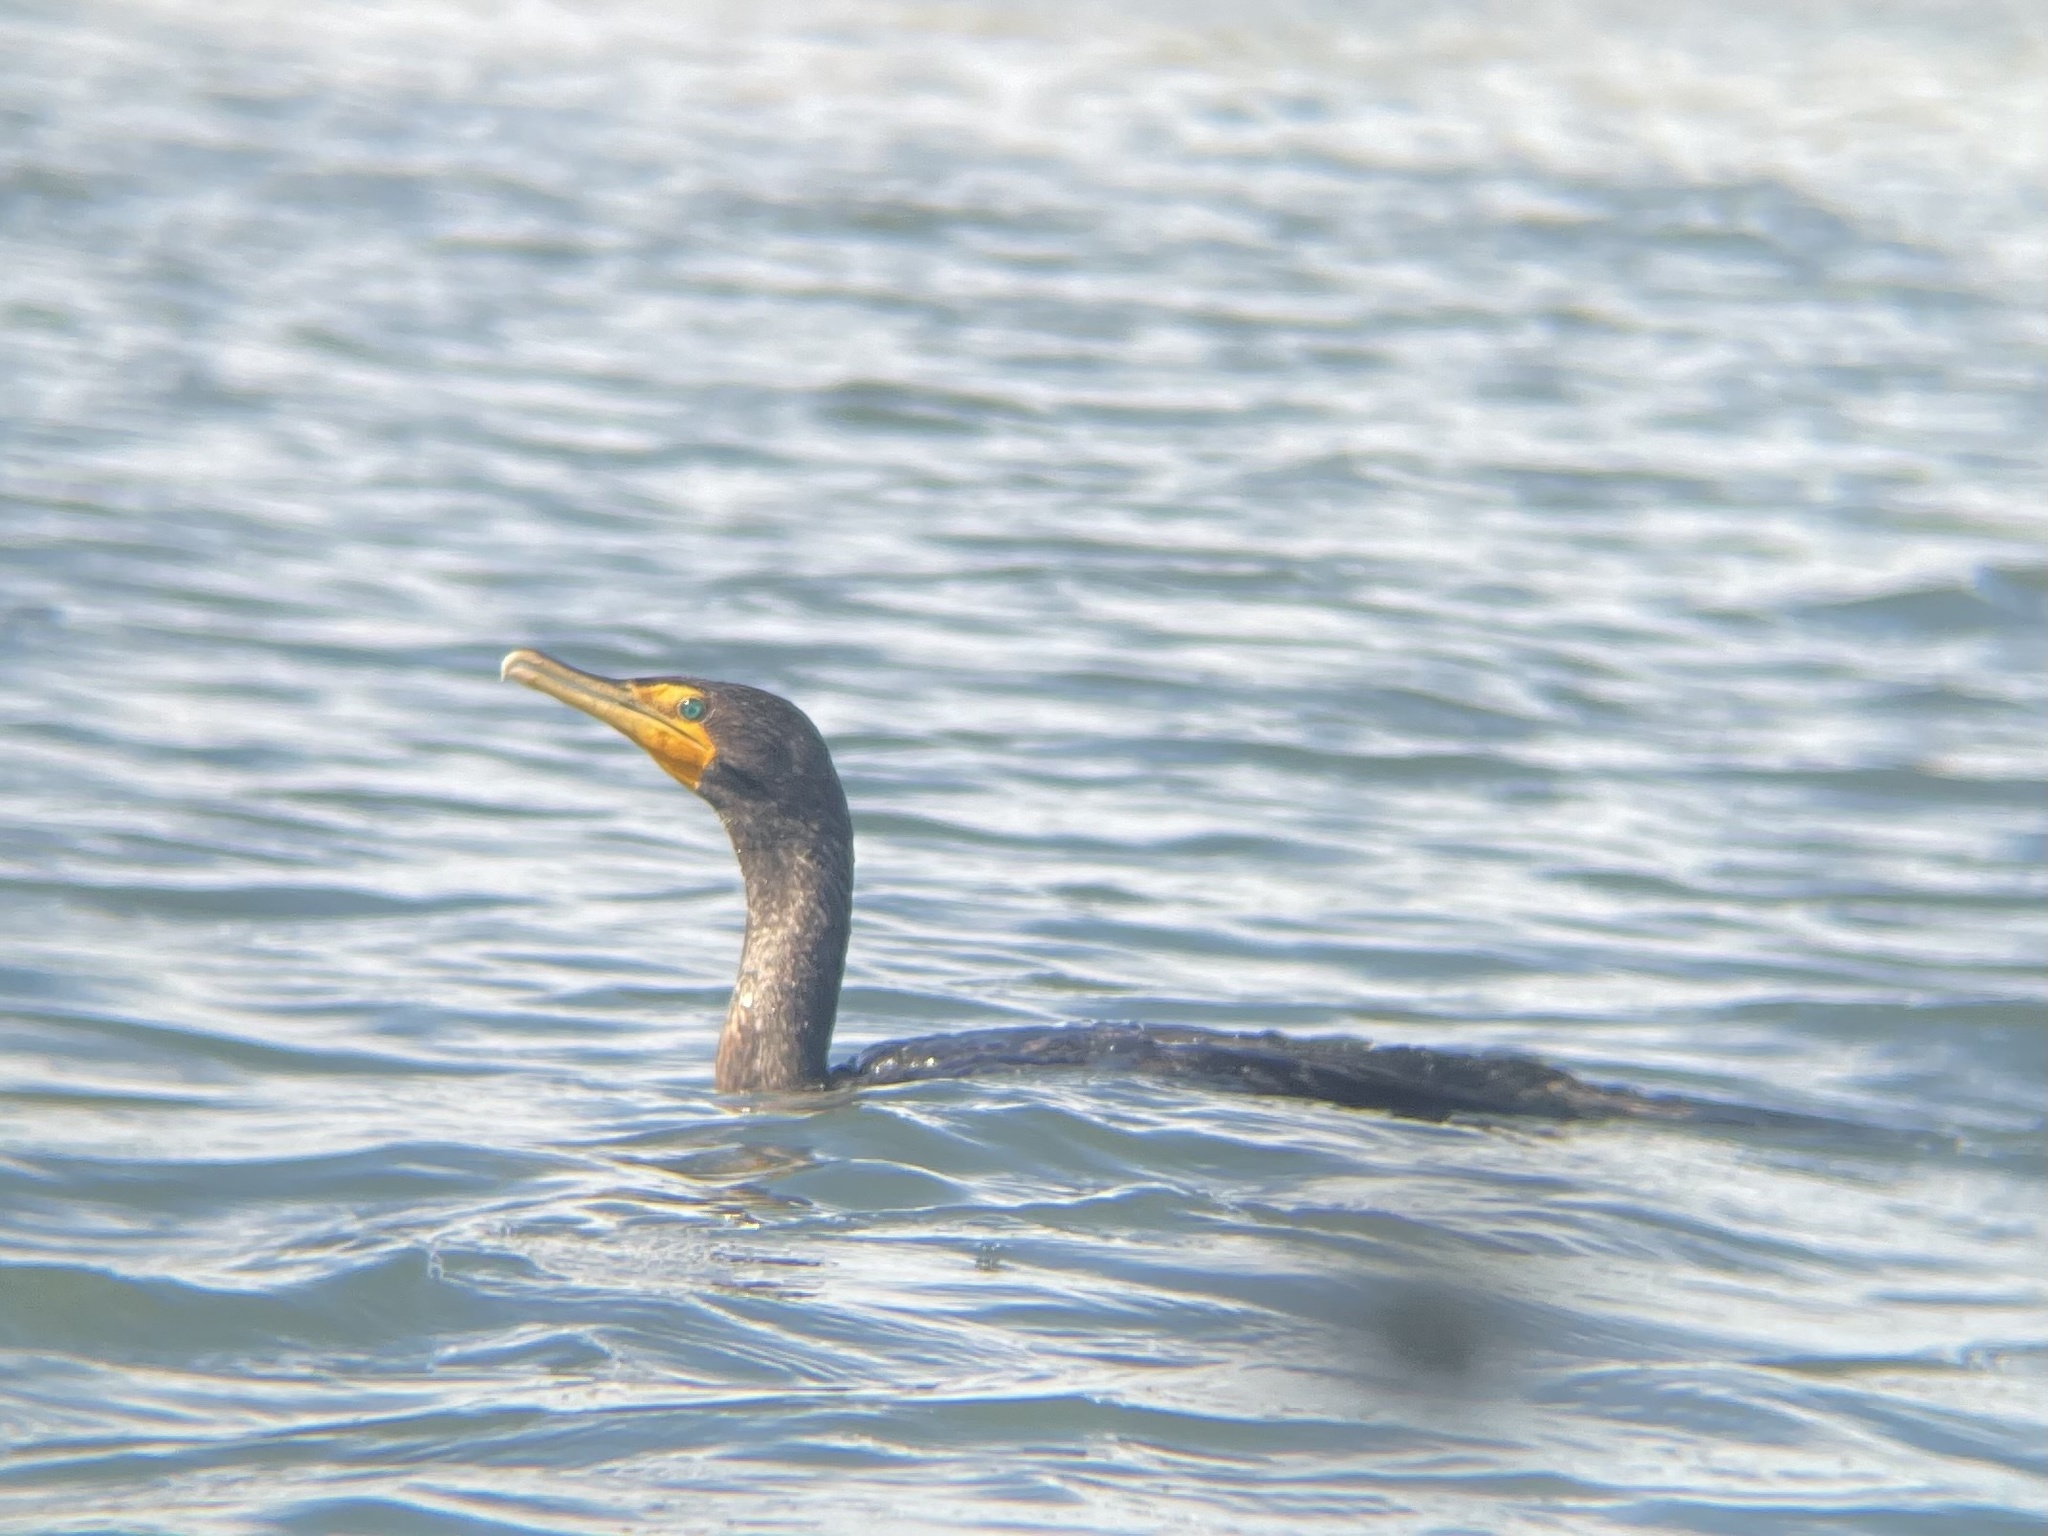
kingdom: Animalia
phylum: Chordata
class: Aves
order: Suliformes
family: Phalacrocoracidae
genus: Phalacrocorax
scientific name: Phalacrocorax auritus
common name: Double-crested cormorant
